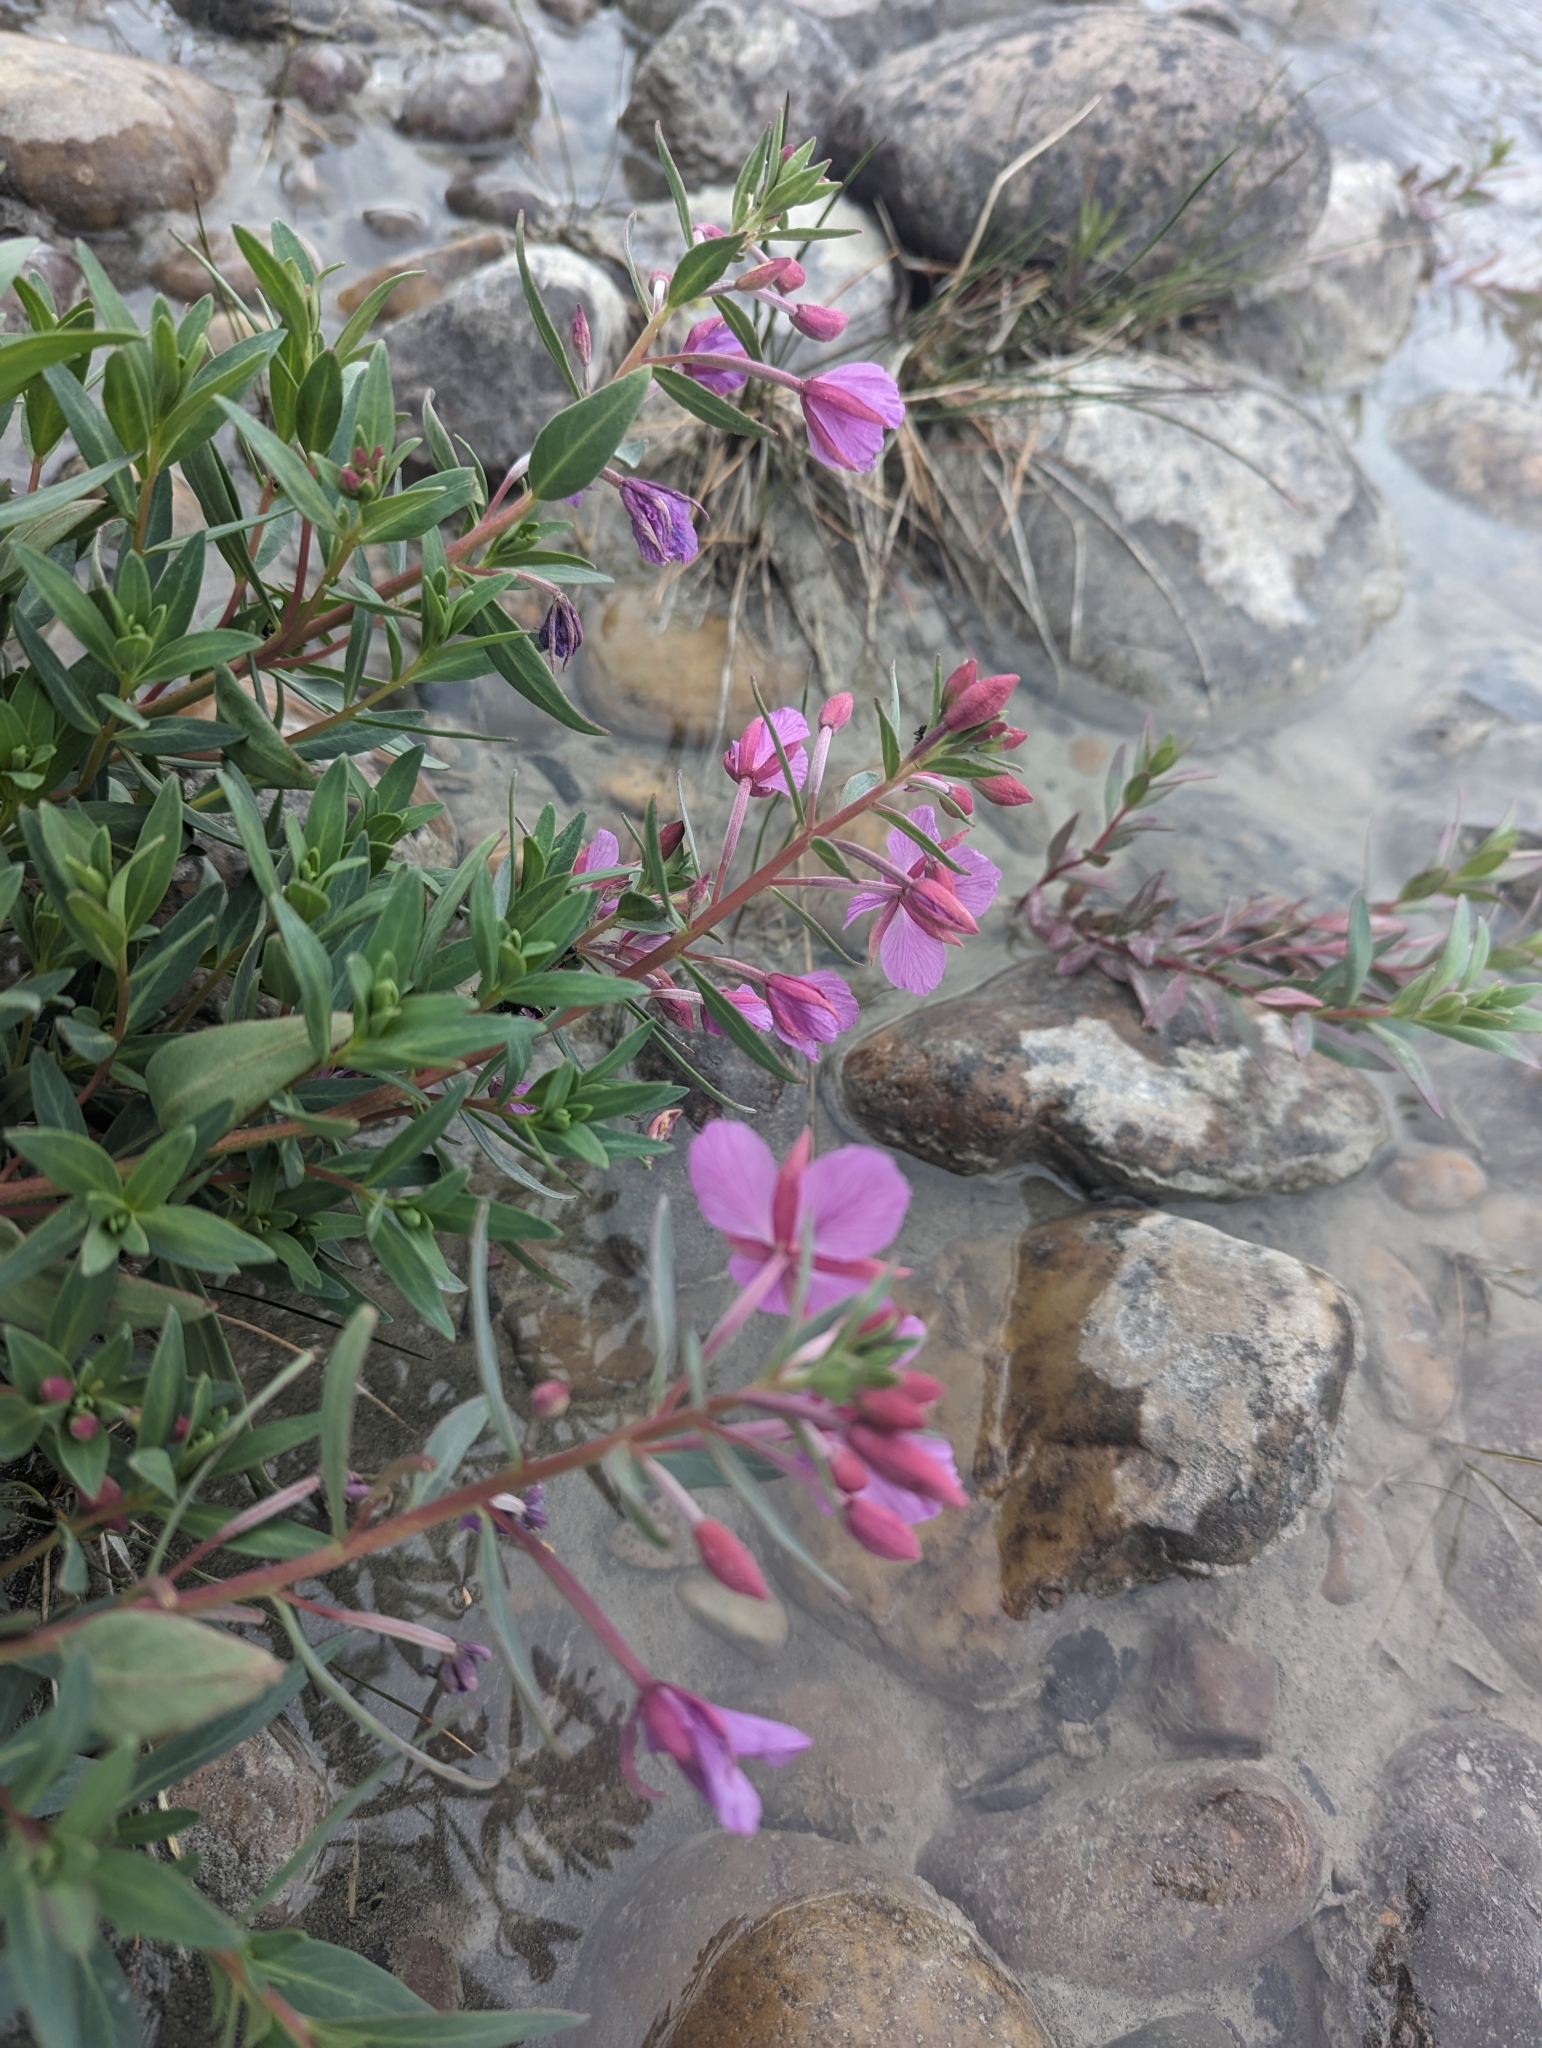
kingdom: Plantae
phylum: Tracheophyta
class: Magnoliopsida
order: Myrtales
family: Onagraceae
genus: Chamaenerion
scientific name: Chamaenerion latifolium
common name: Dwarf fireweed
